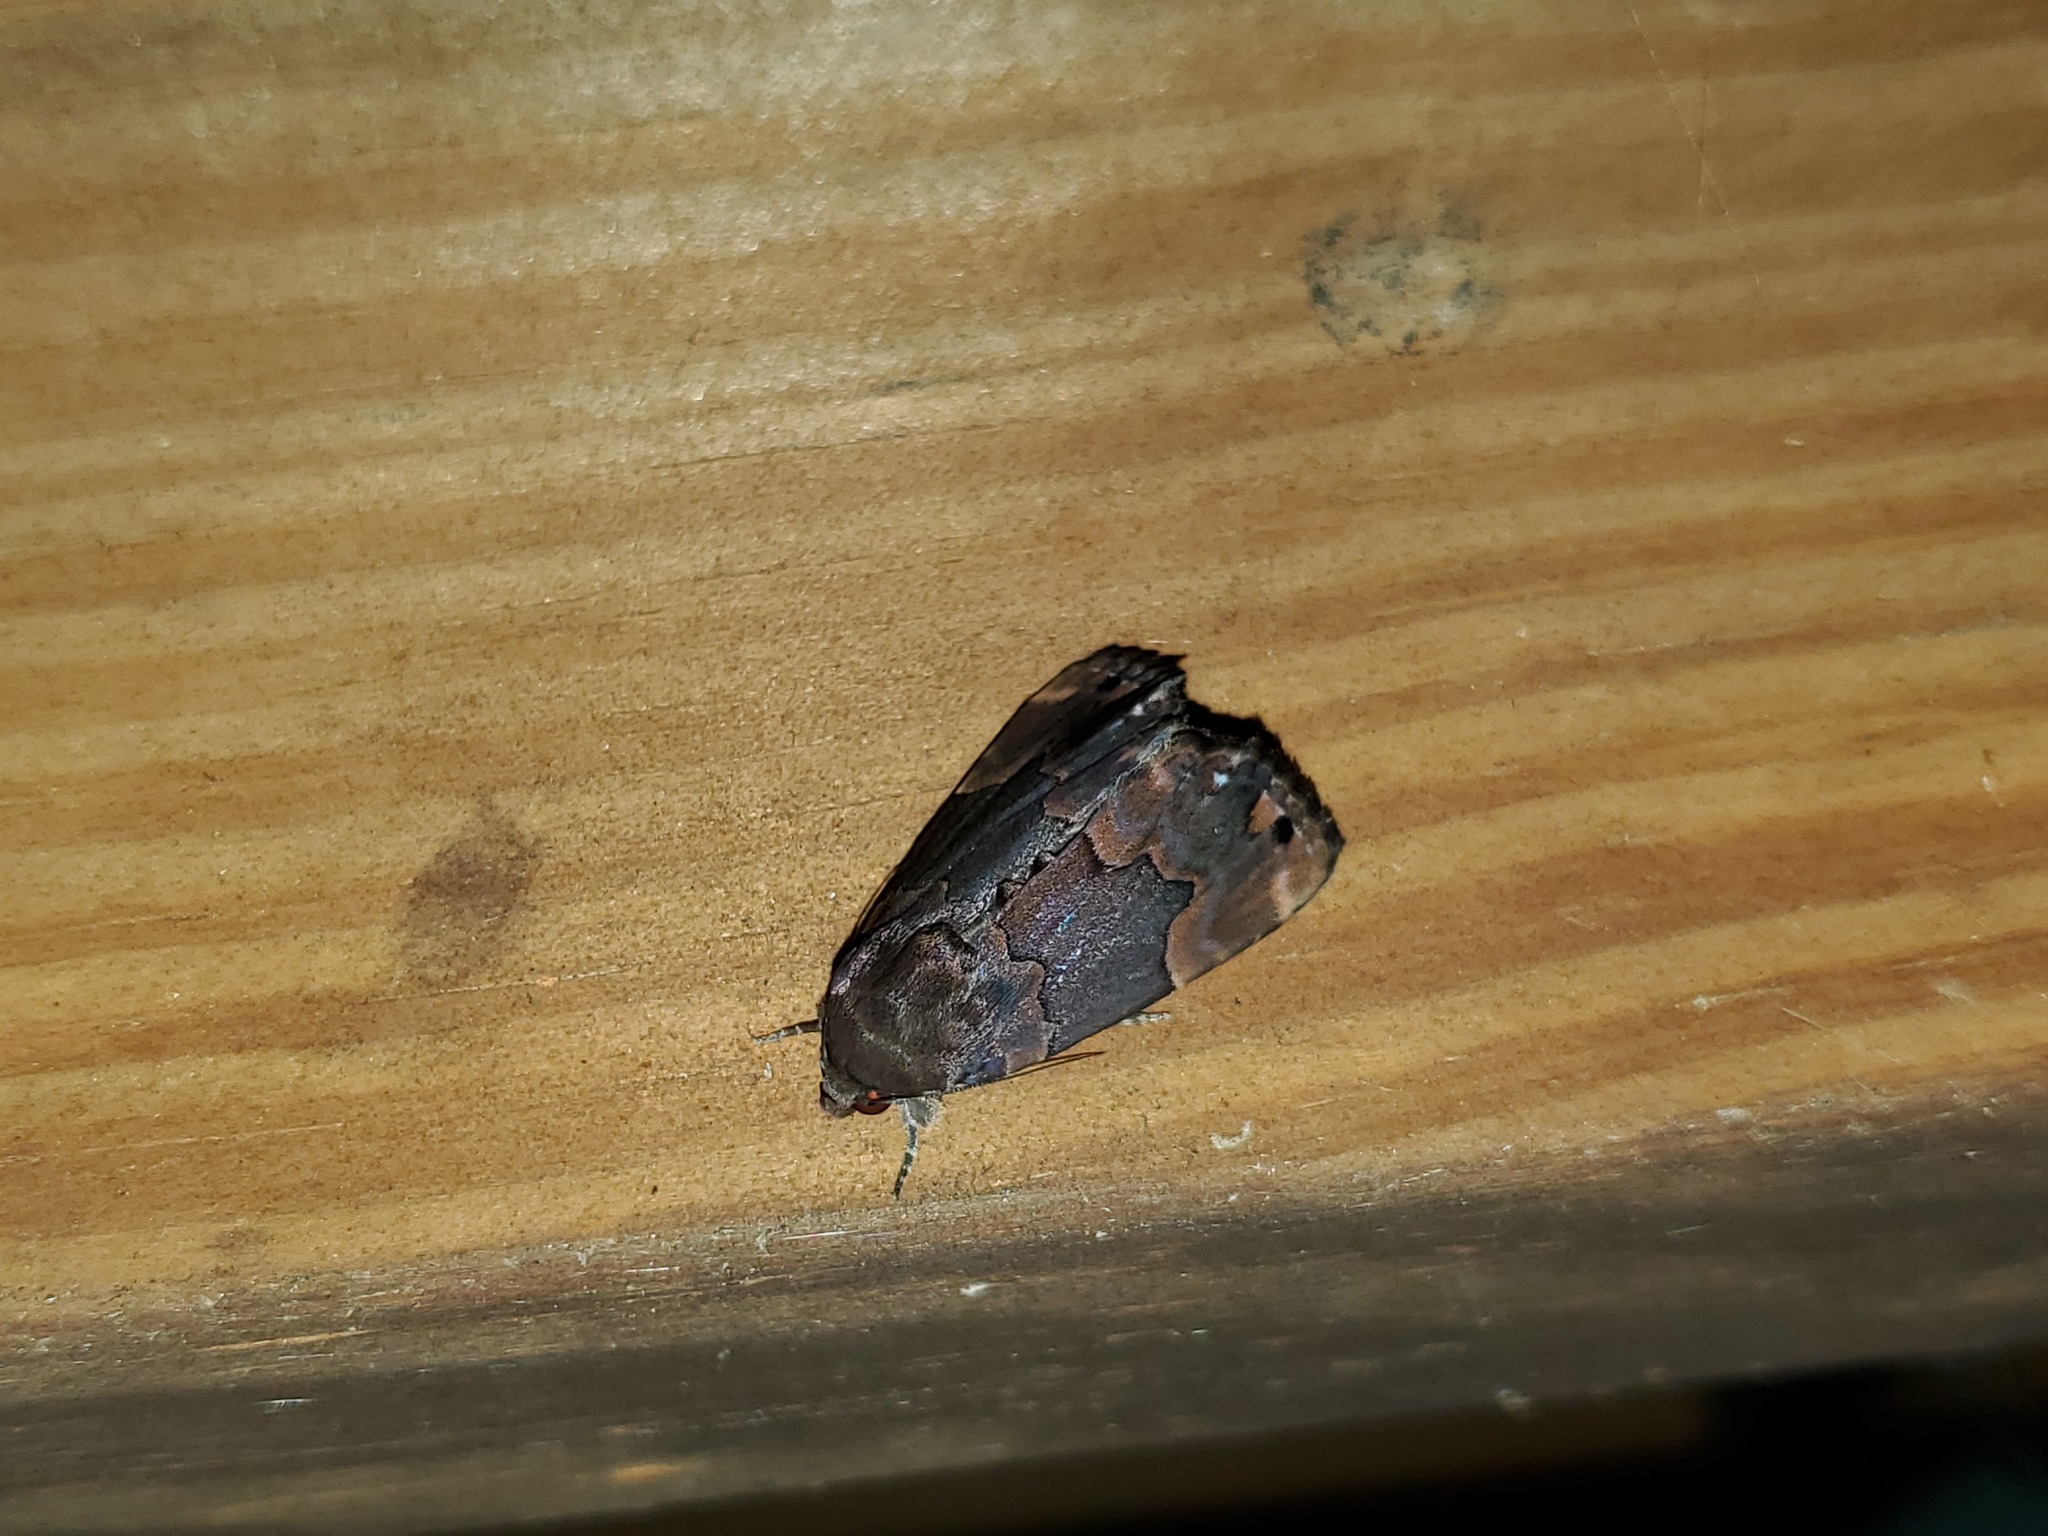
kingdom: Animalia
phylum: Arthropoda
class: Insecta
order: Lepidoptera
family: Erebidae
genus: Dinumma
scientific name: Dinumma deponens
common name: Purplish moth
